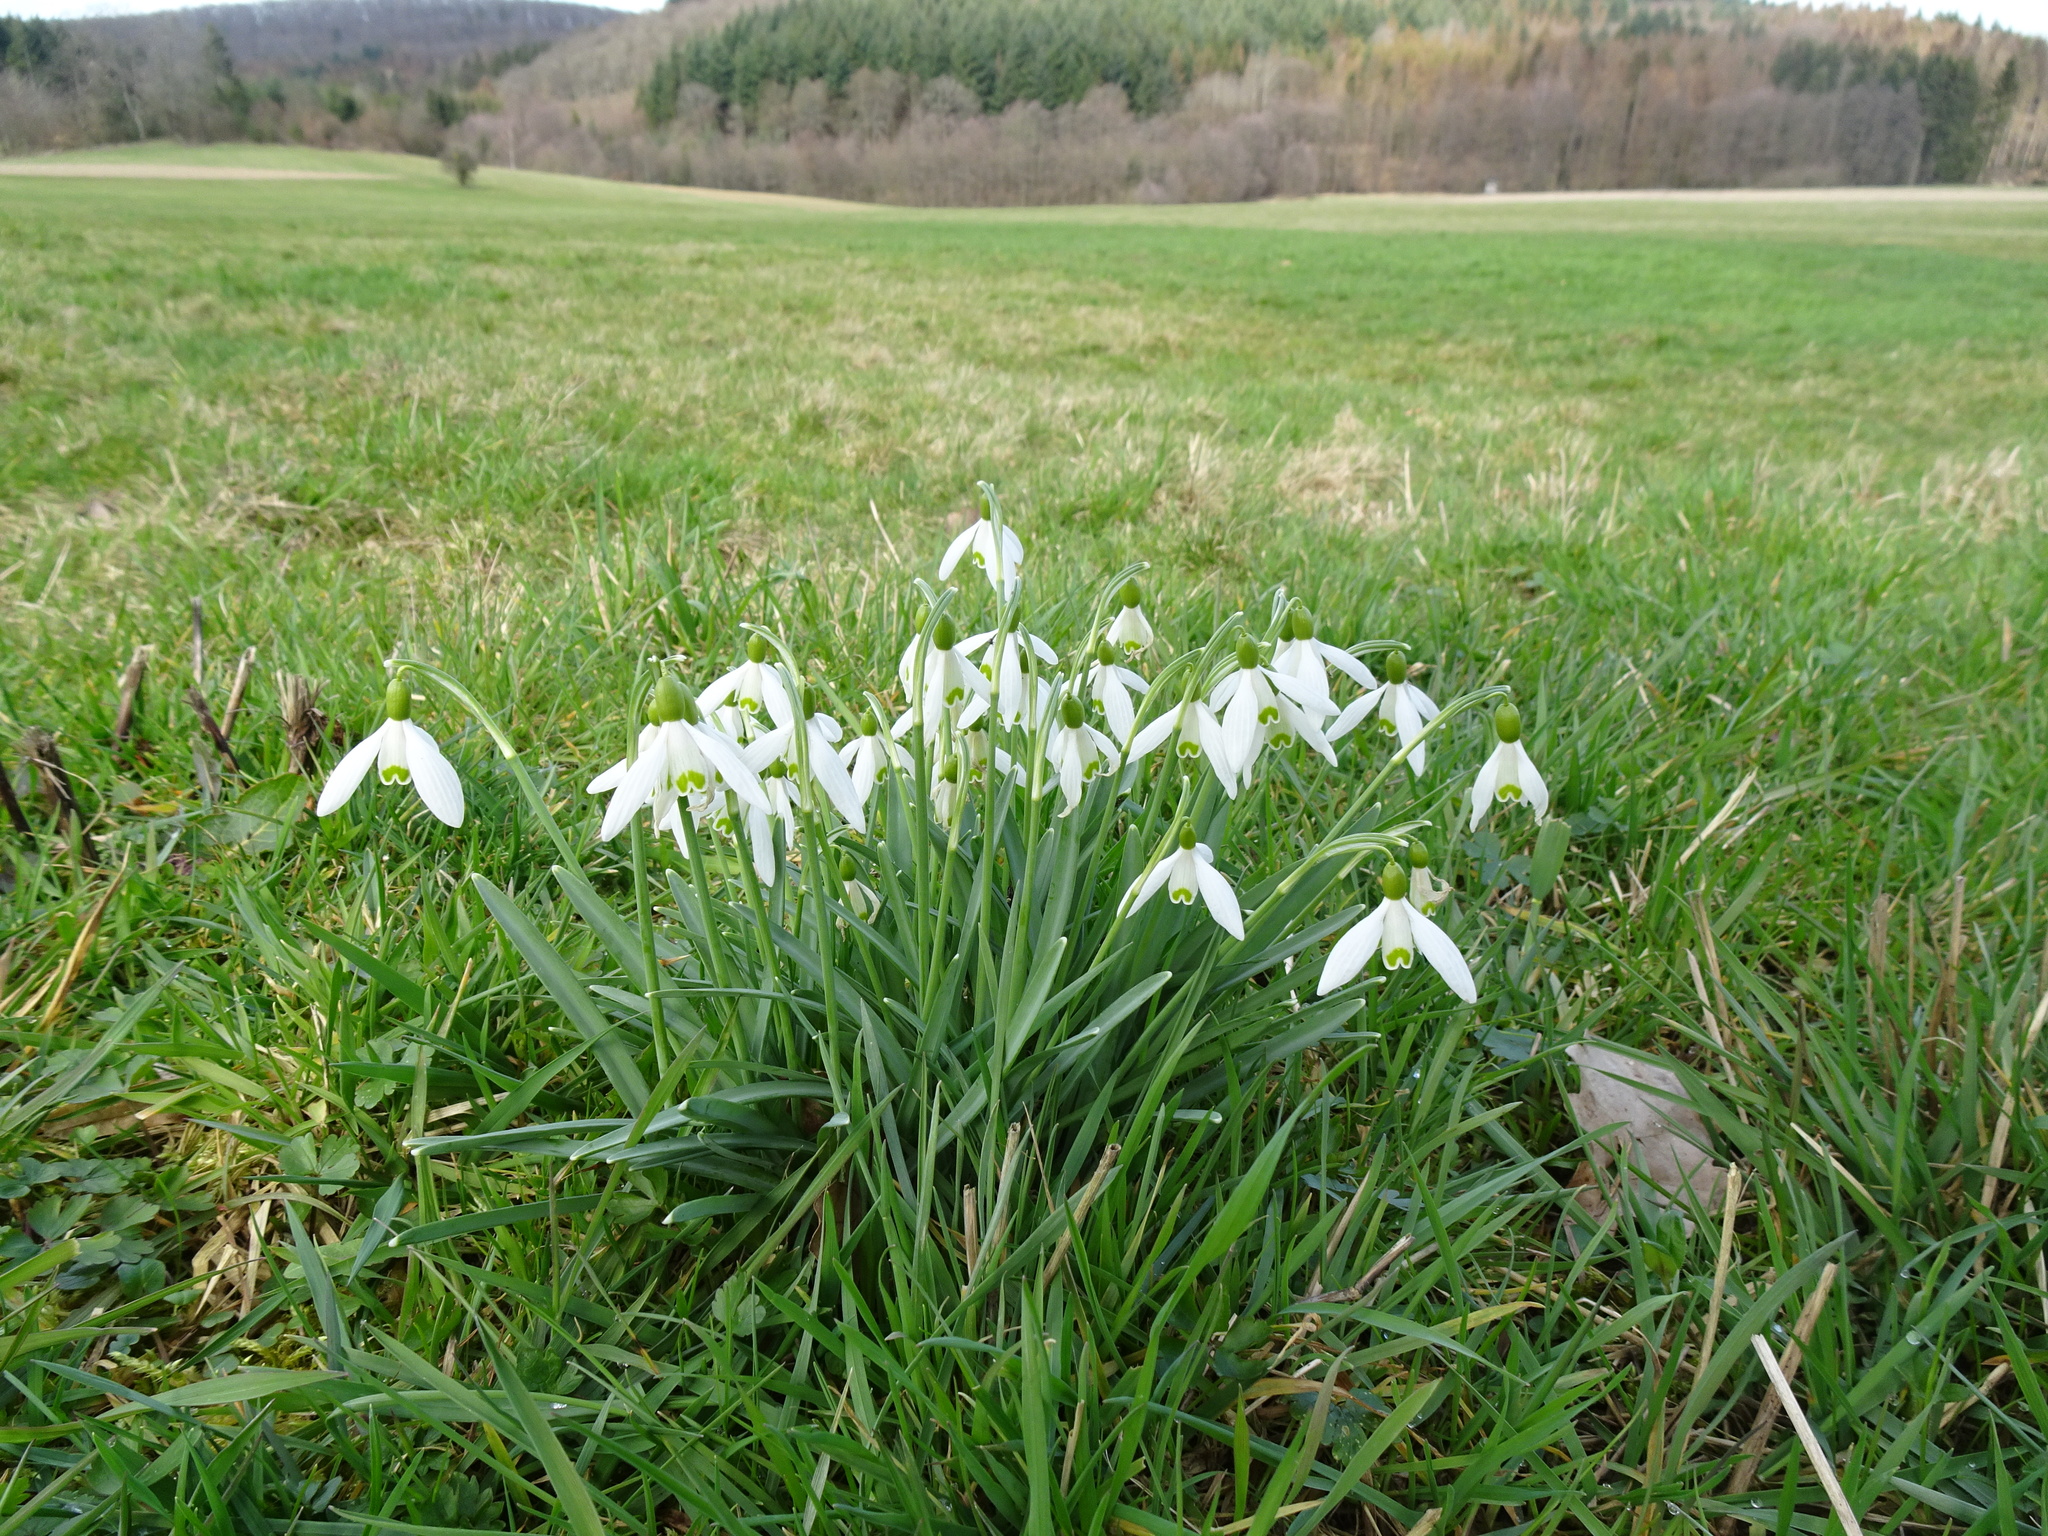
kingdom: Plantae
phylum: Tracheophyta
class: Liliopsida
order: Asparagales
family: Amaryllidaceae
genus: Galanthus
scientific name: Galanthus nivalis
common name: Snowdrop
